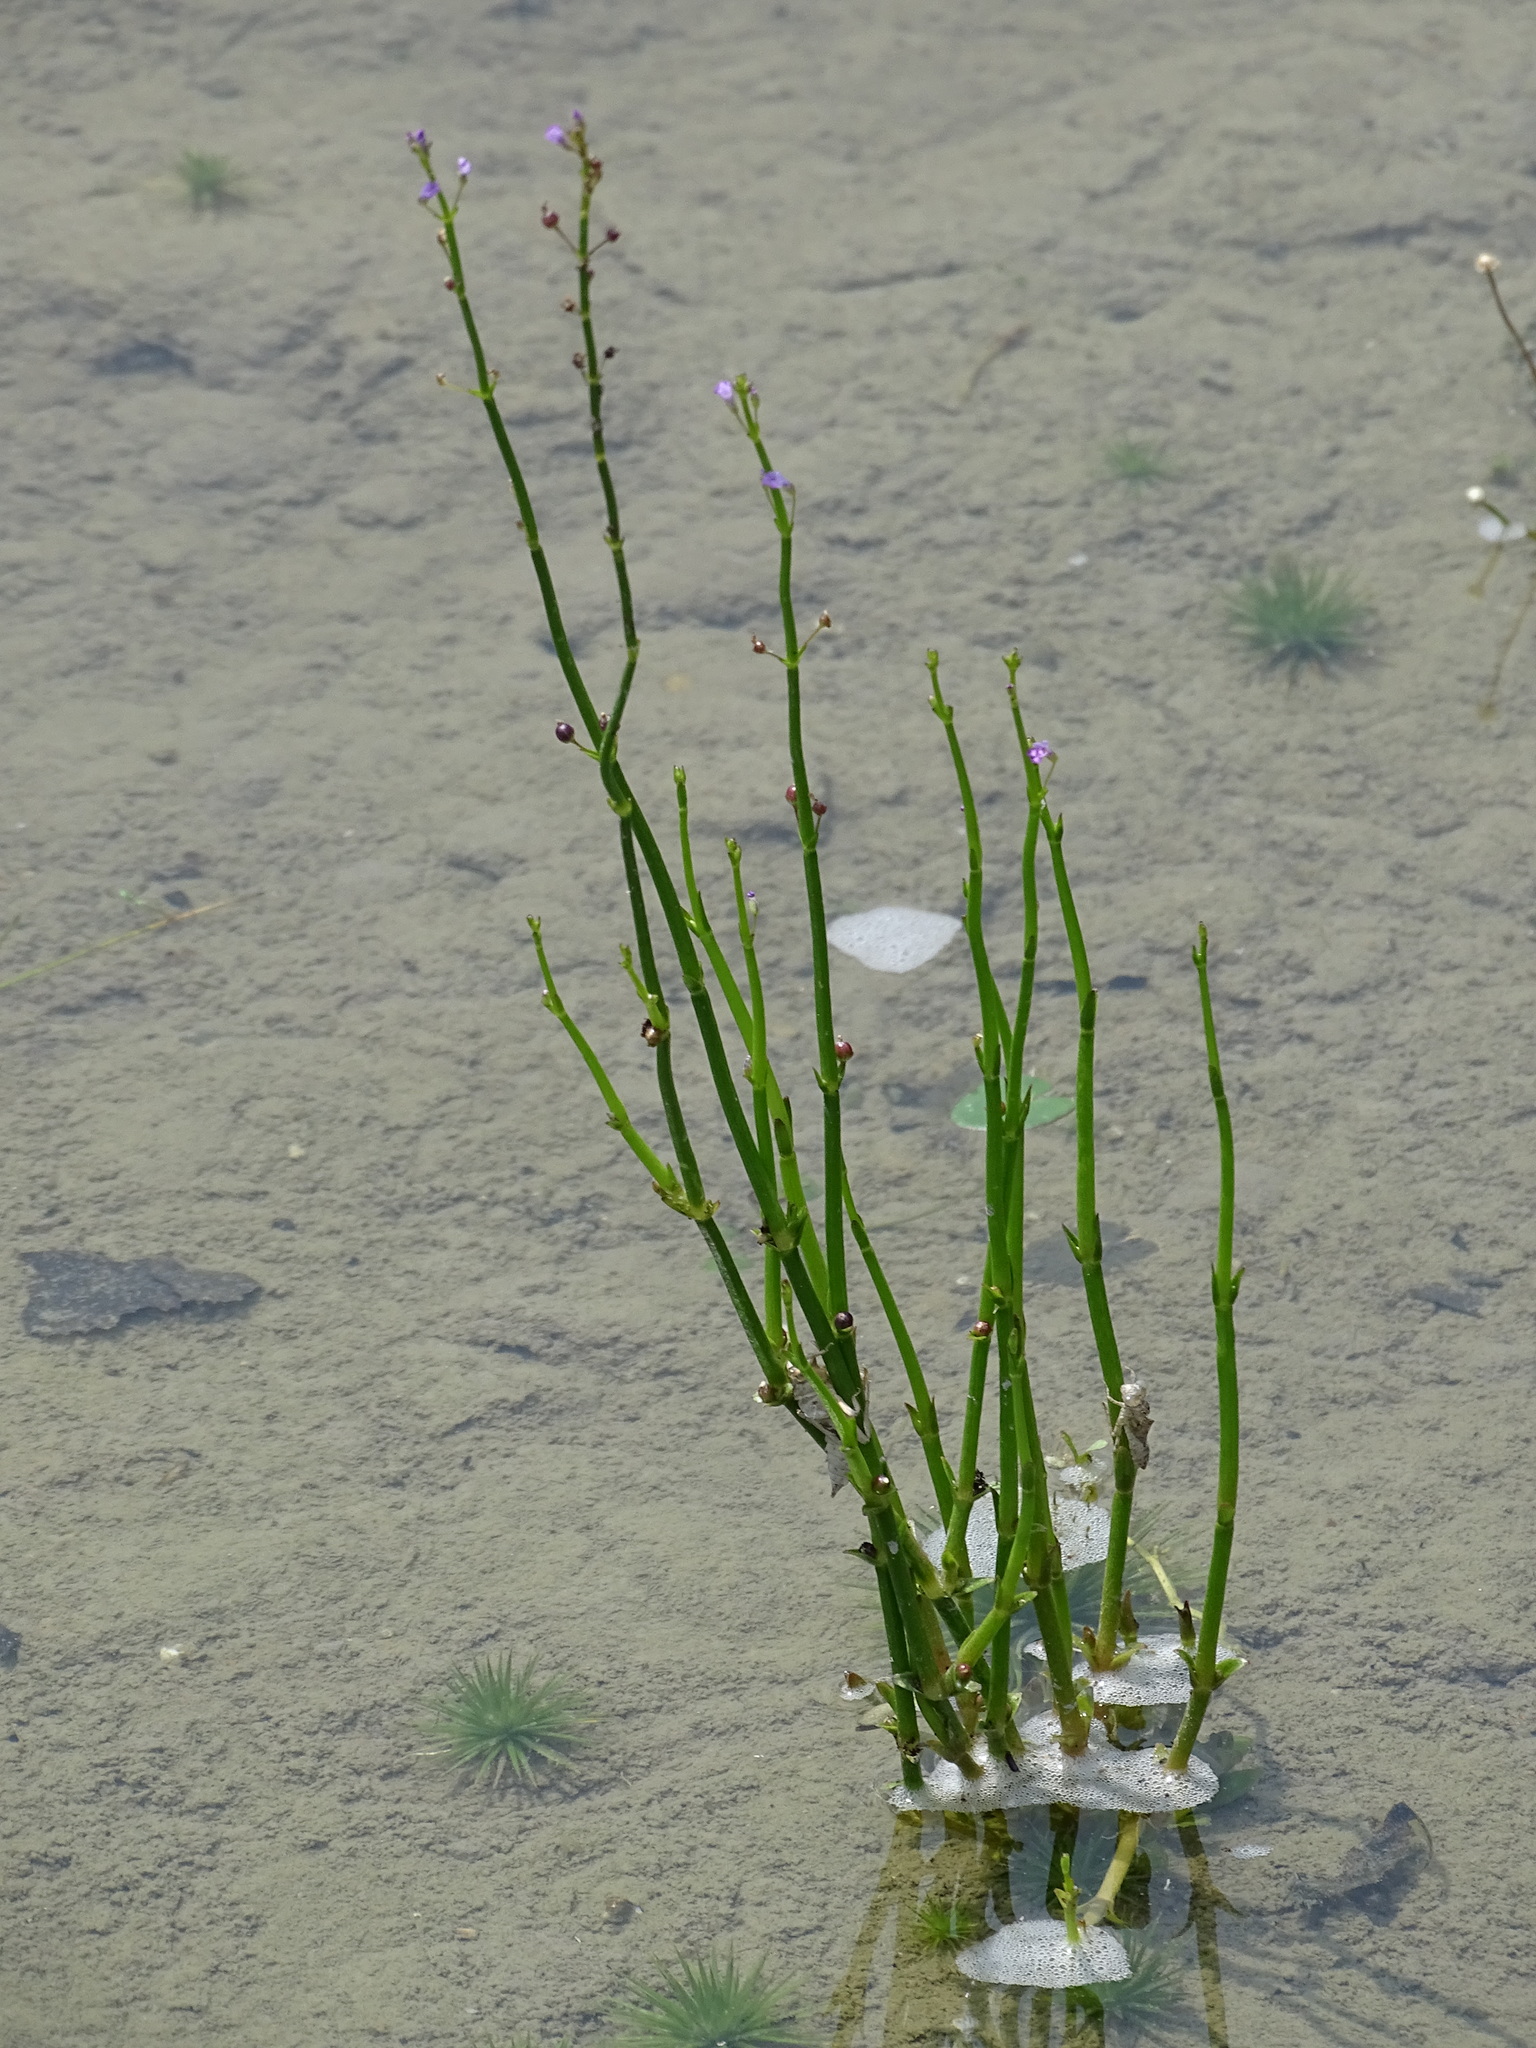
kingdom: Plantae
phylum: Tracheophyta
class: Magnoliopsida
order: Lamiales
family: Plantaginaceae
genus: Dopatrium
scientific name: Dopatrium junceum
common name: Horsefly's eye
